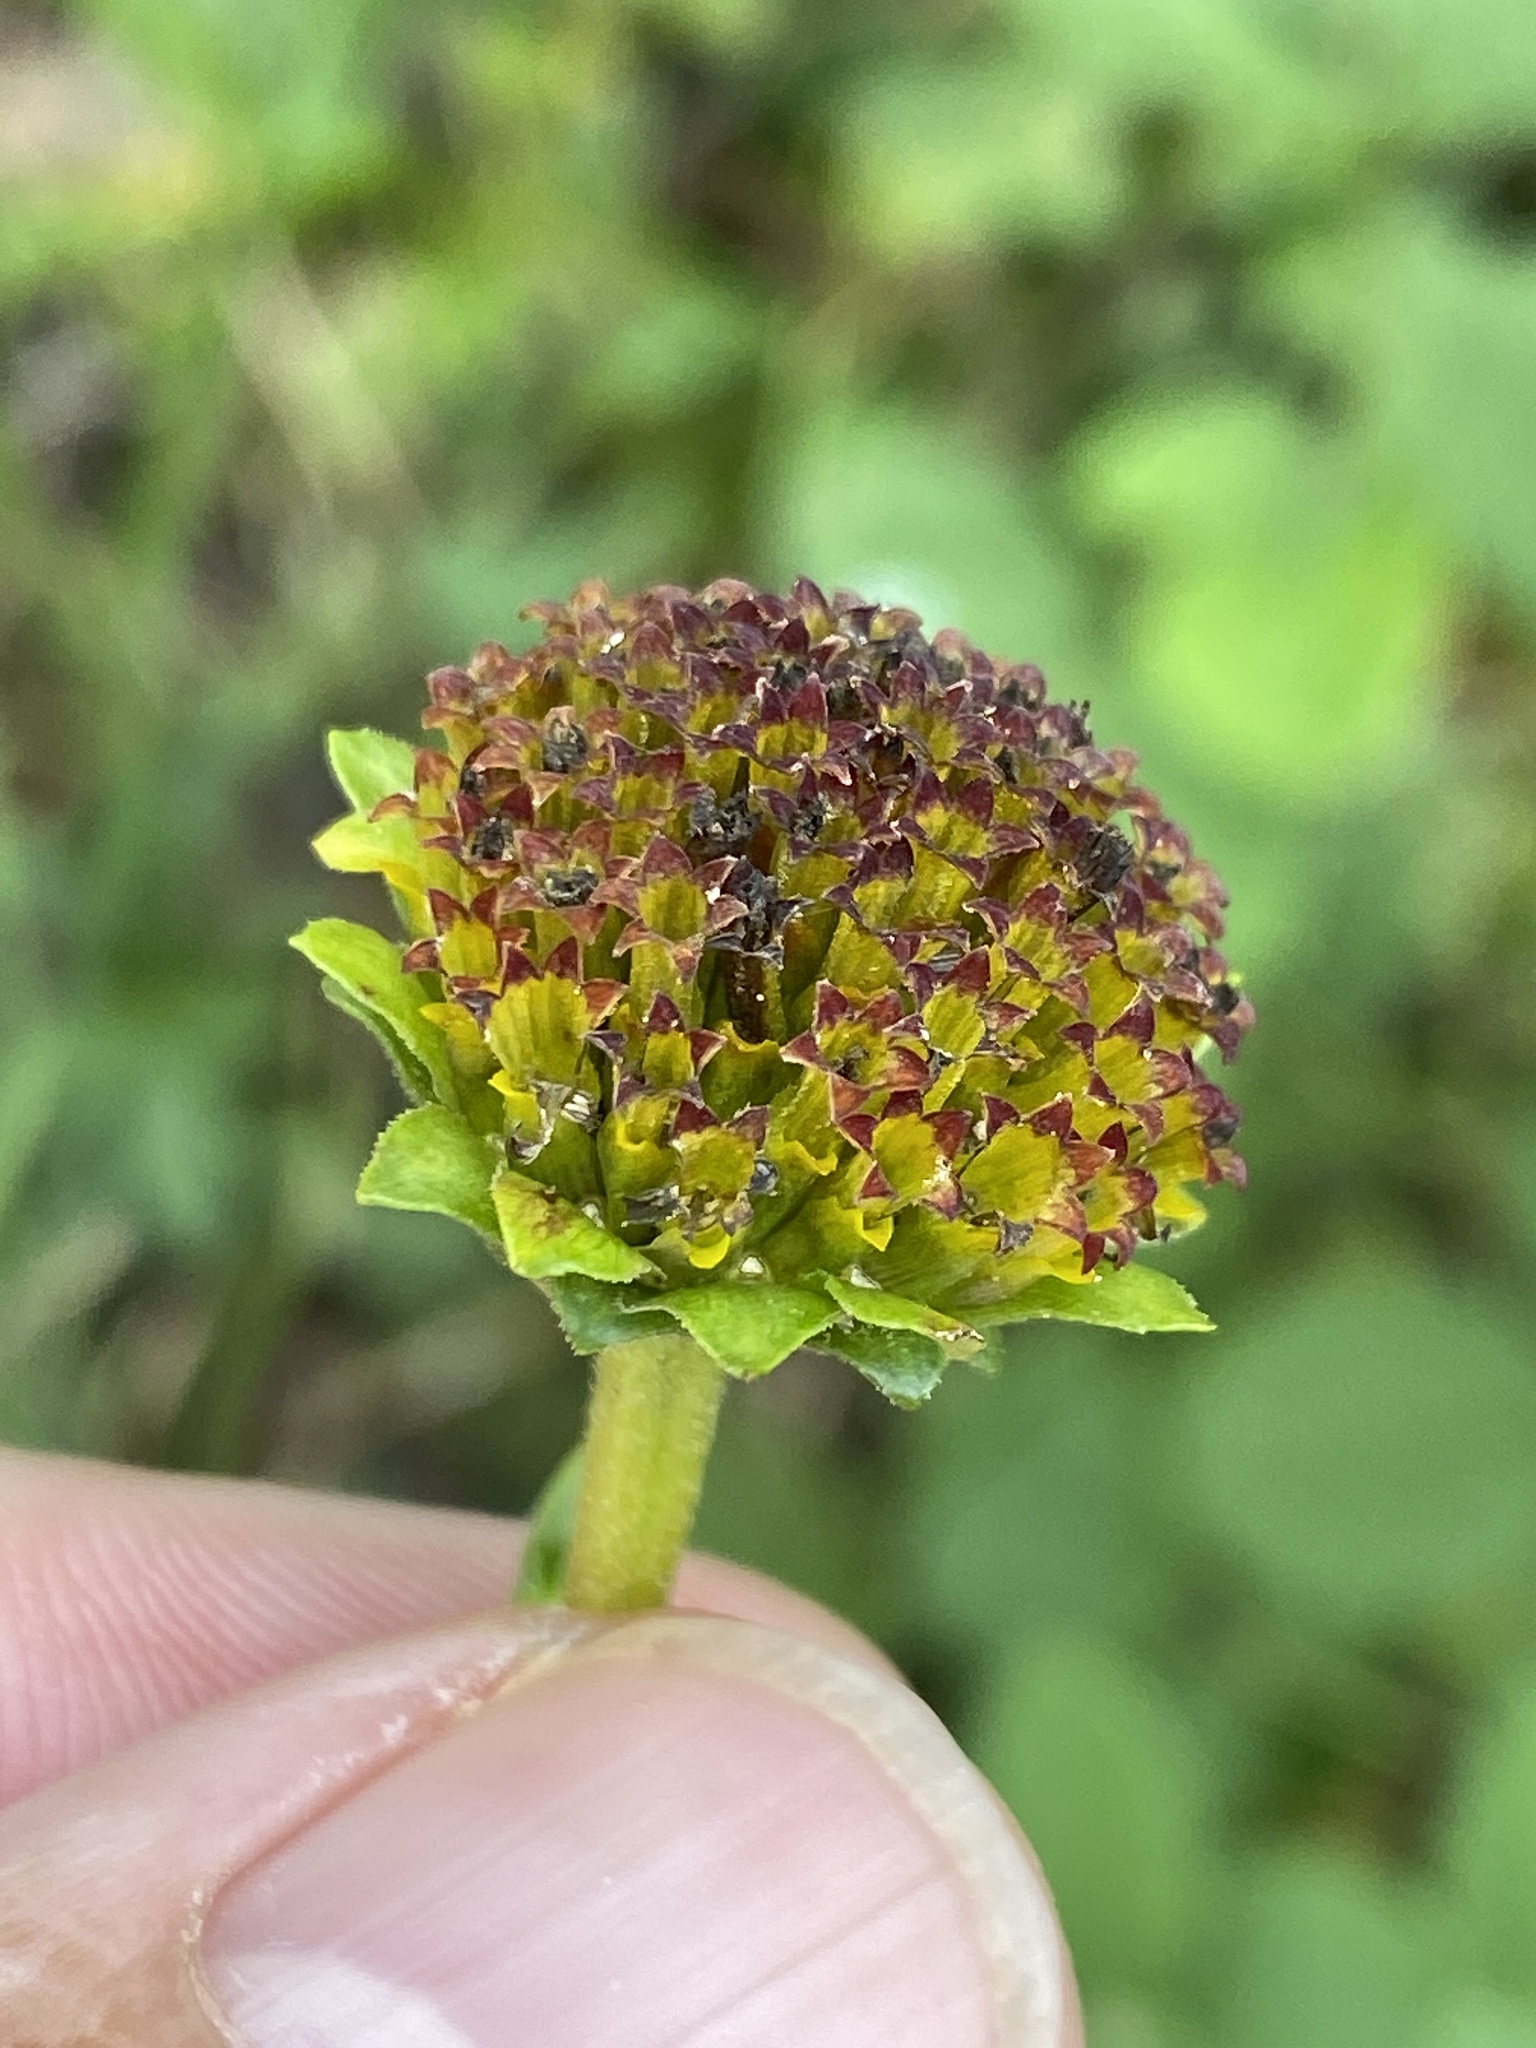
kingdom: Plantae
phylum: Tracheophyta
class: Magnoliopsida
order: Asterales
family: Asteraceae
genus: Helianthus
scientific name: Helianthus atrorubens
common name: Dark-eyed sunflower
